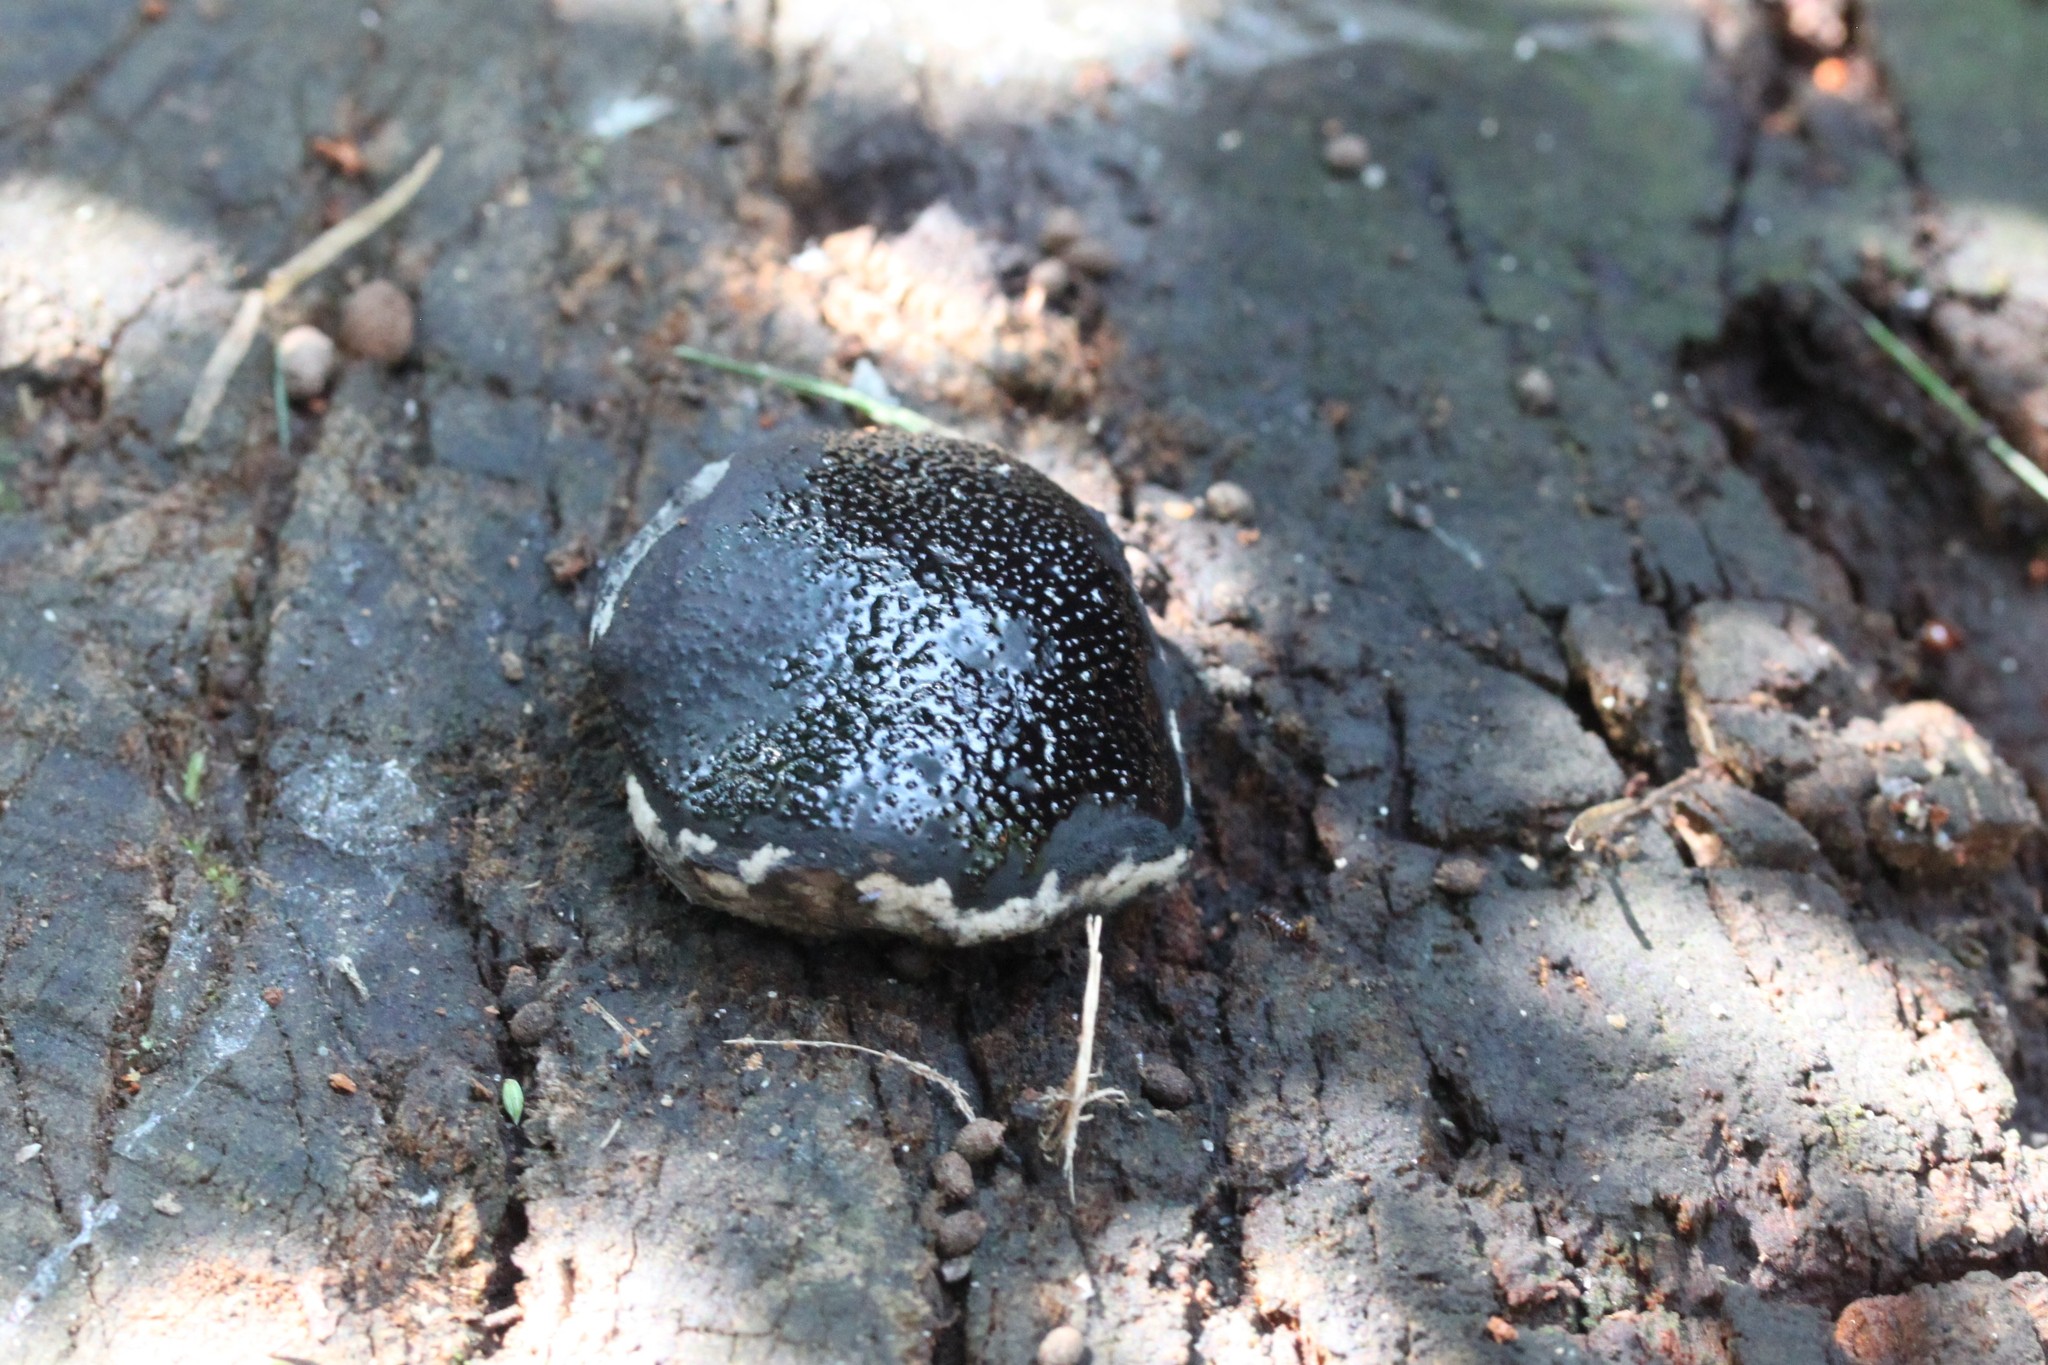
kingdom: Fungi
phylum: Ascomycota
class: Sordariomycetes
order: Boliniales
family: Boliniaceae
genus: Camarops
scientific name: Camarops petersii
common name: Dog's nose fungus
